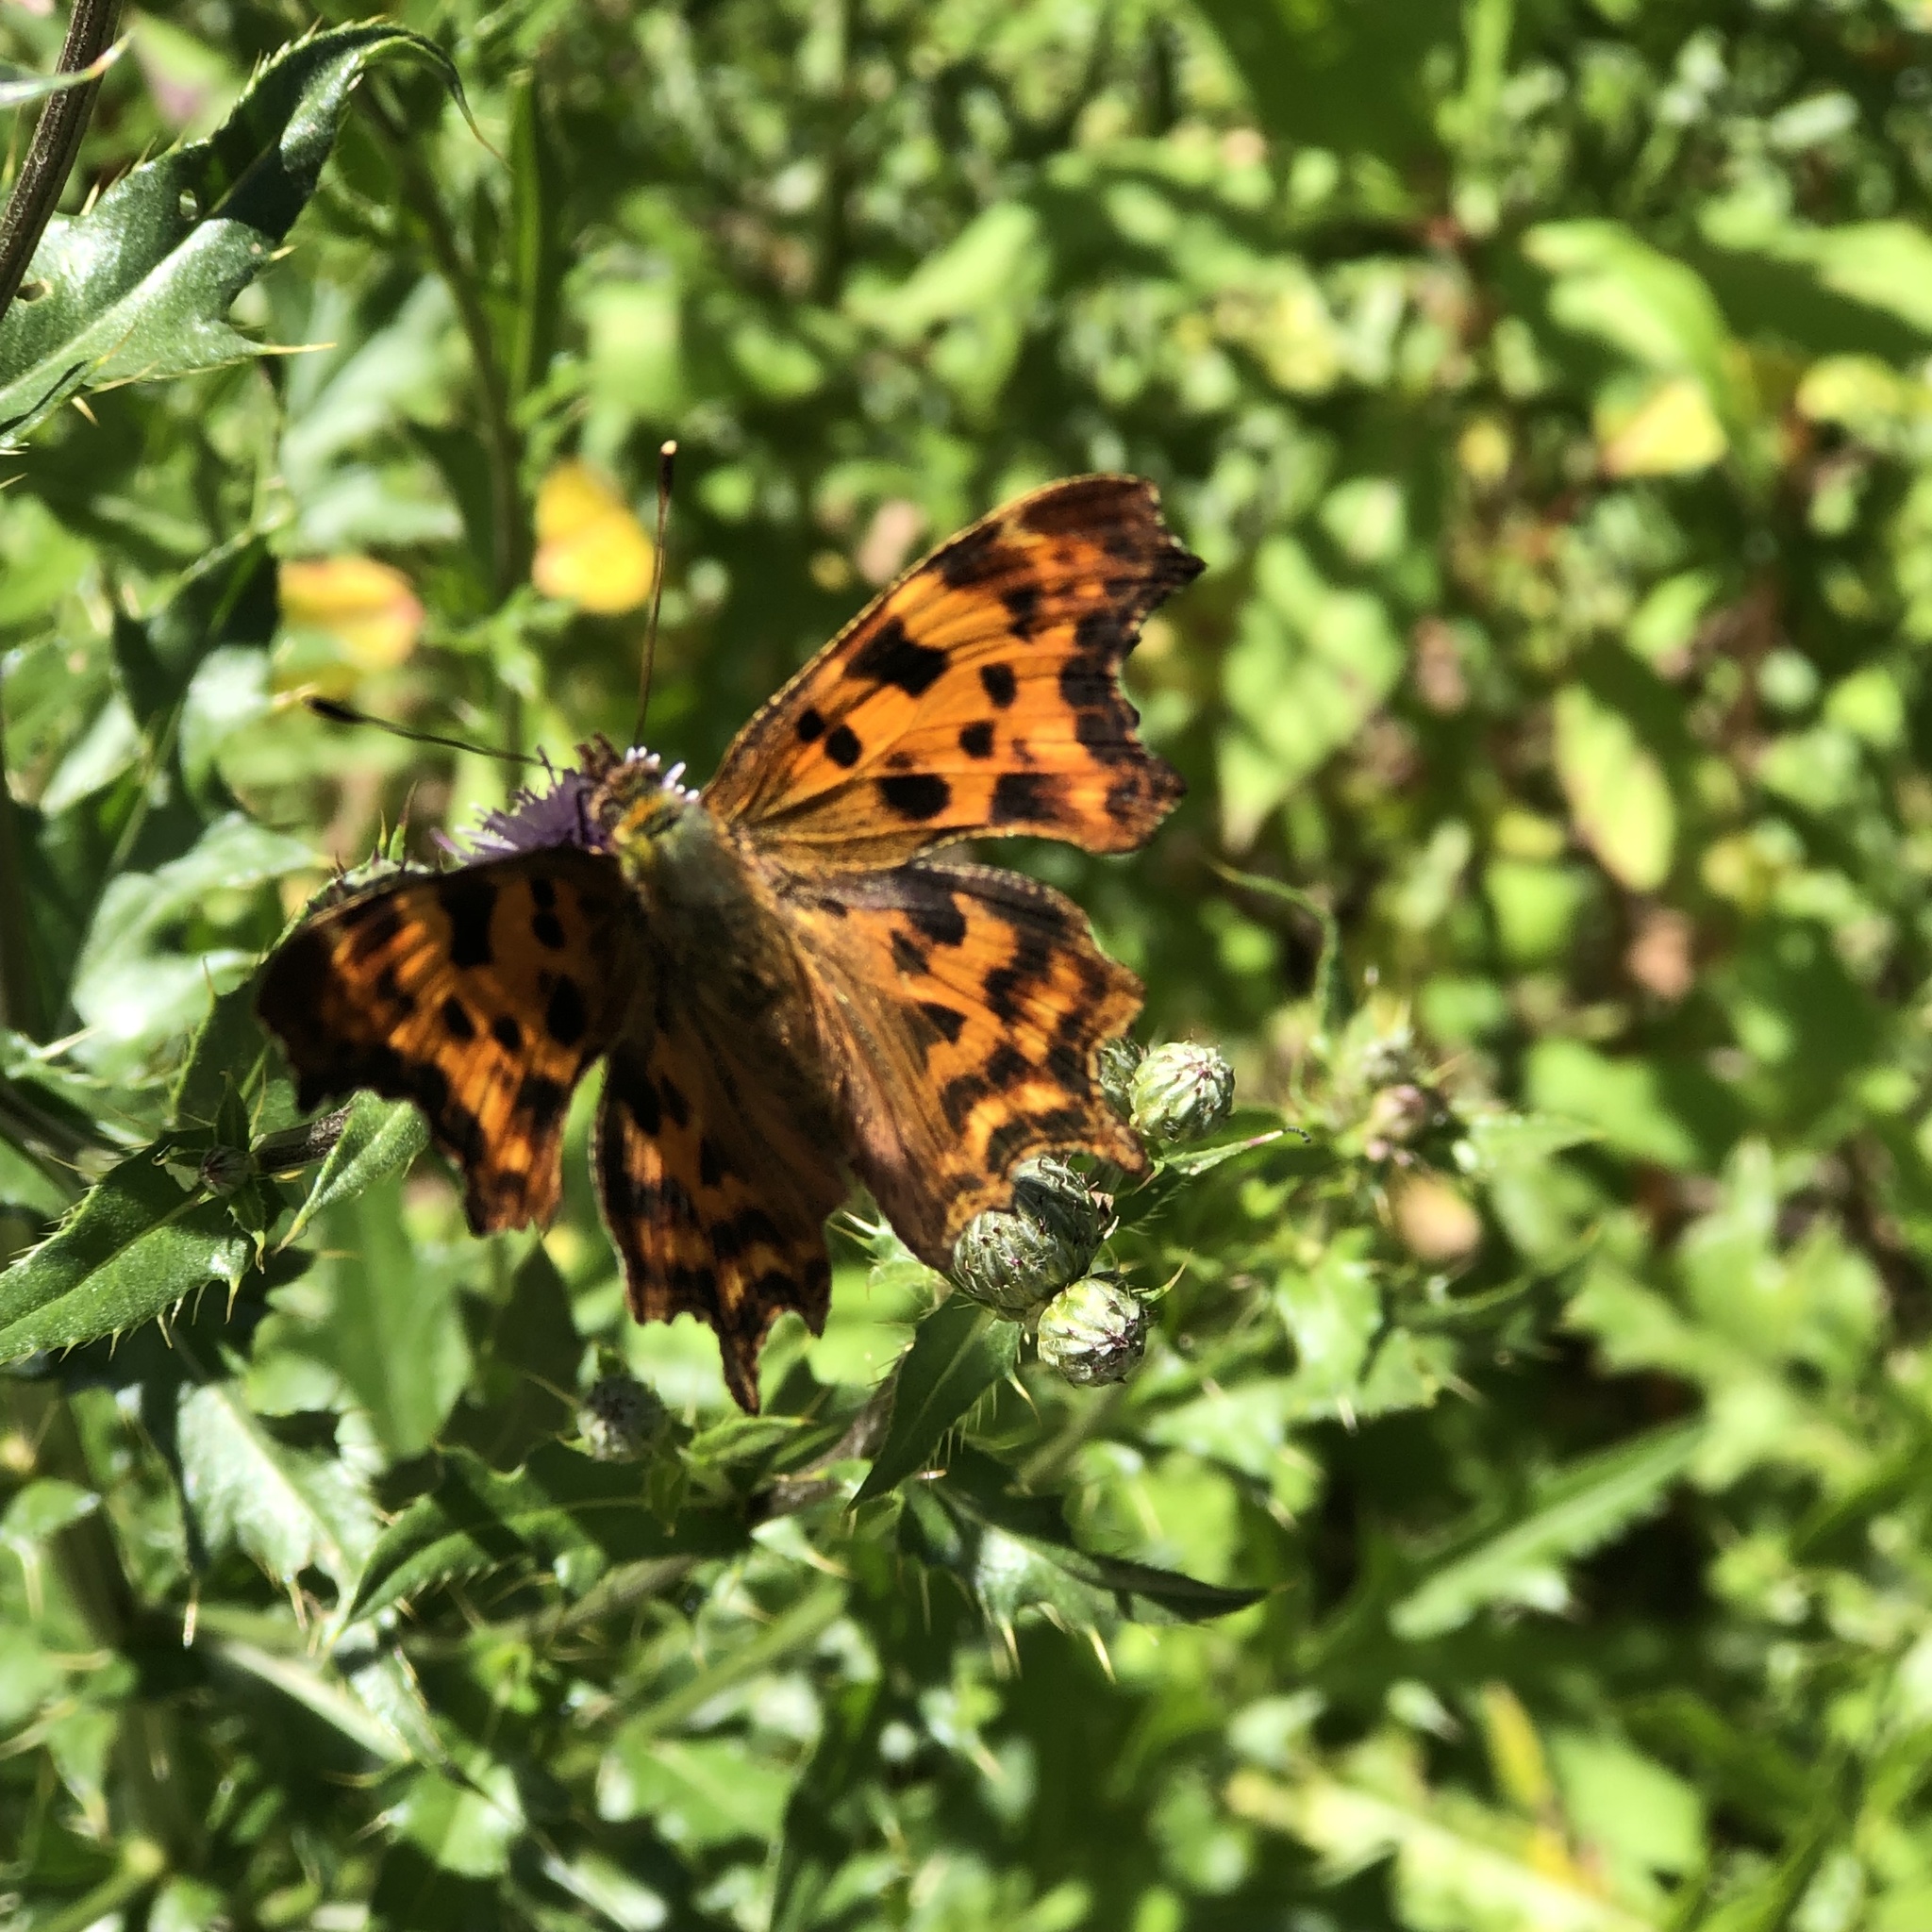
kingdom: Animalia
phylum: Arthropoda
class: Insecta
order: Lepidoptera
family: Nymphalidae
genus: Polygonia
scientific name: Polygonia c-album
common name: Comma
